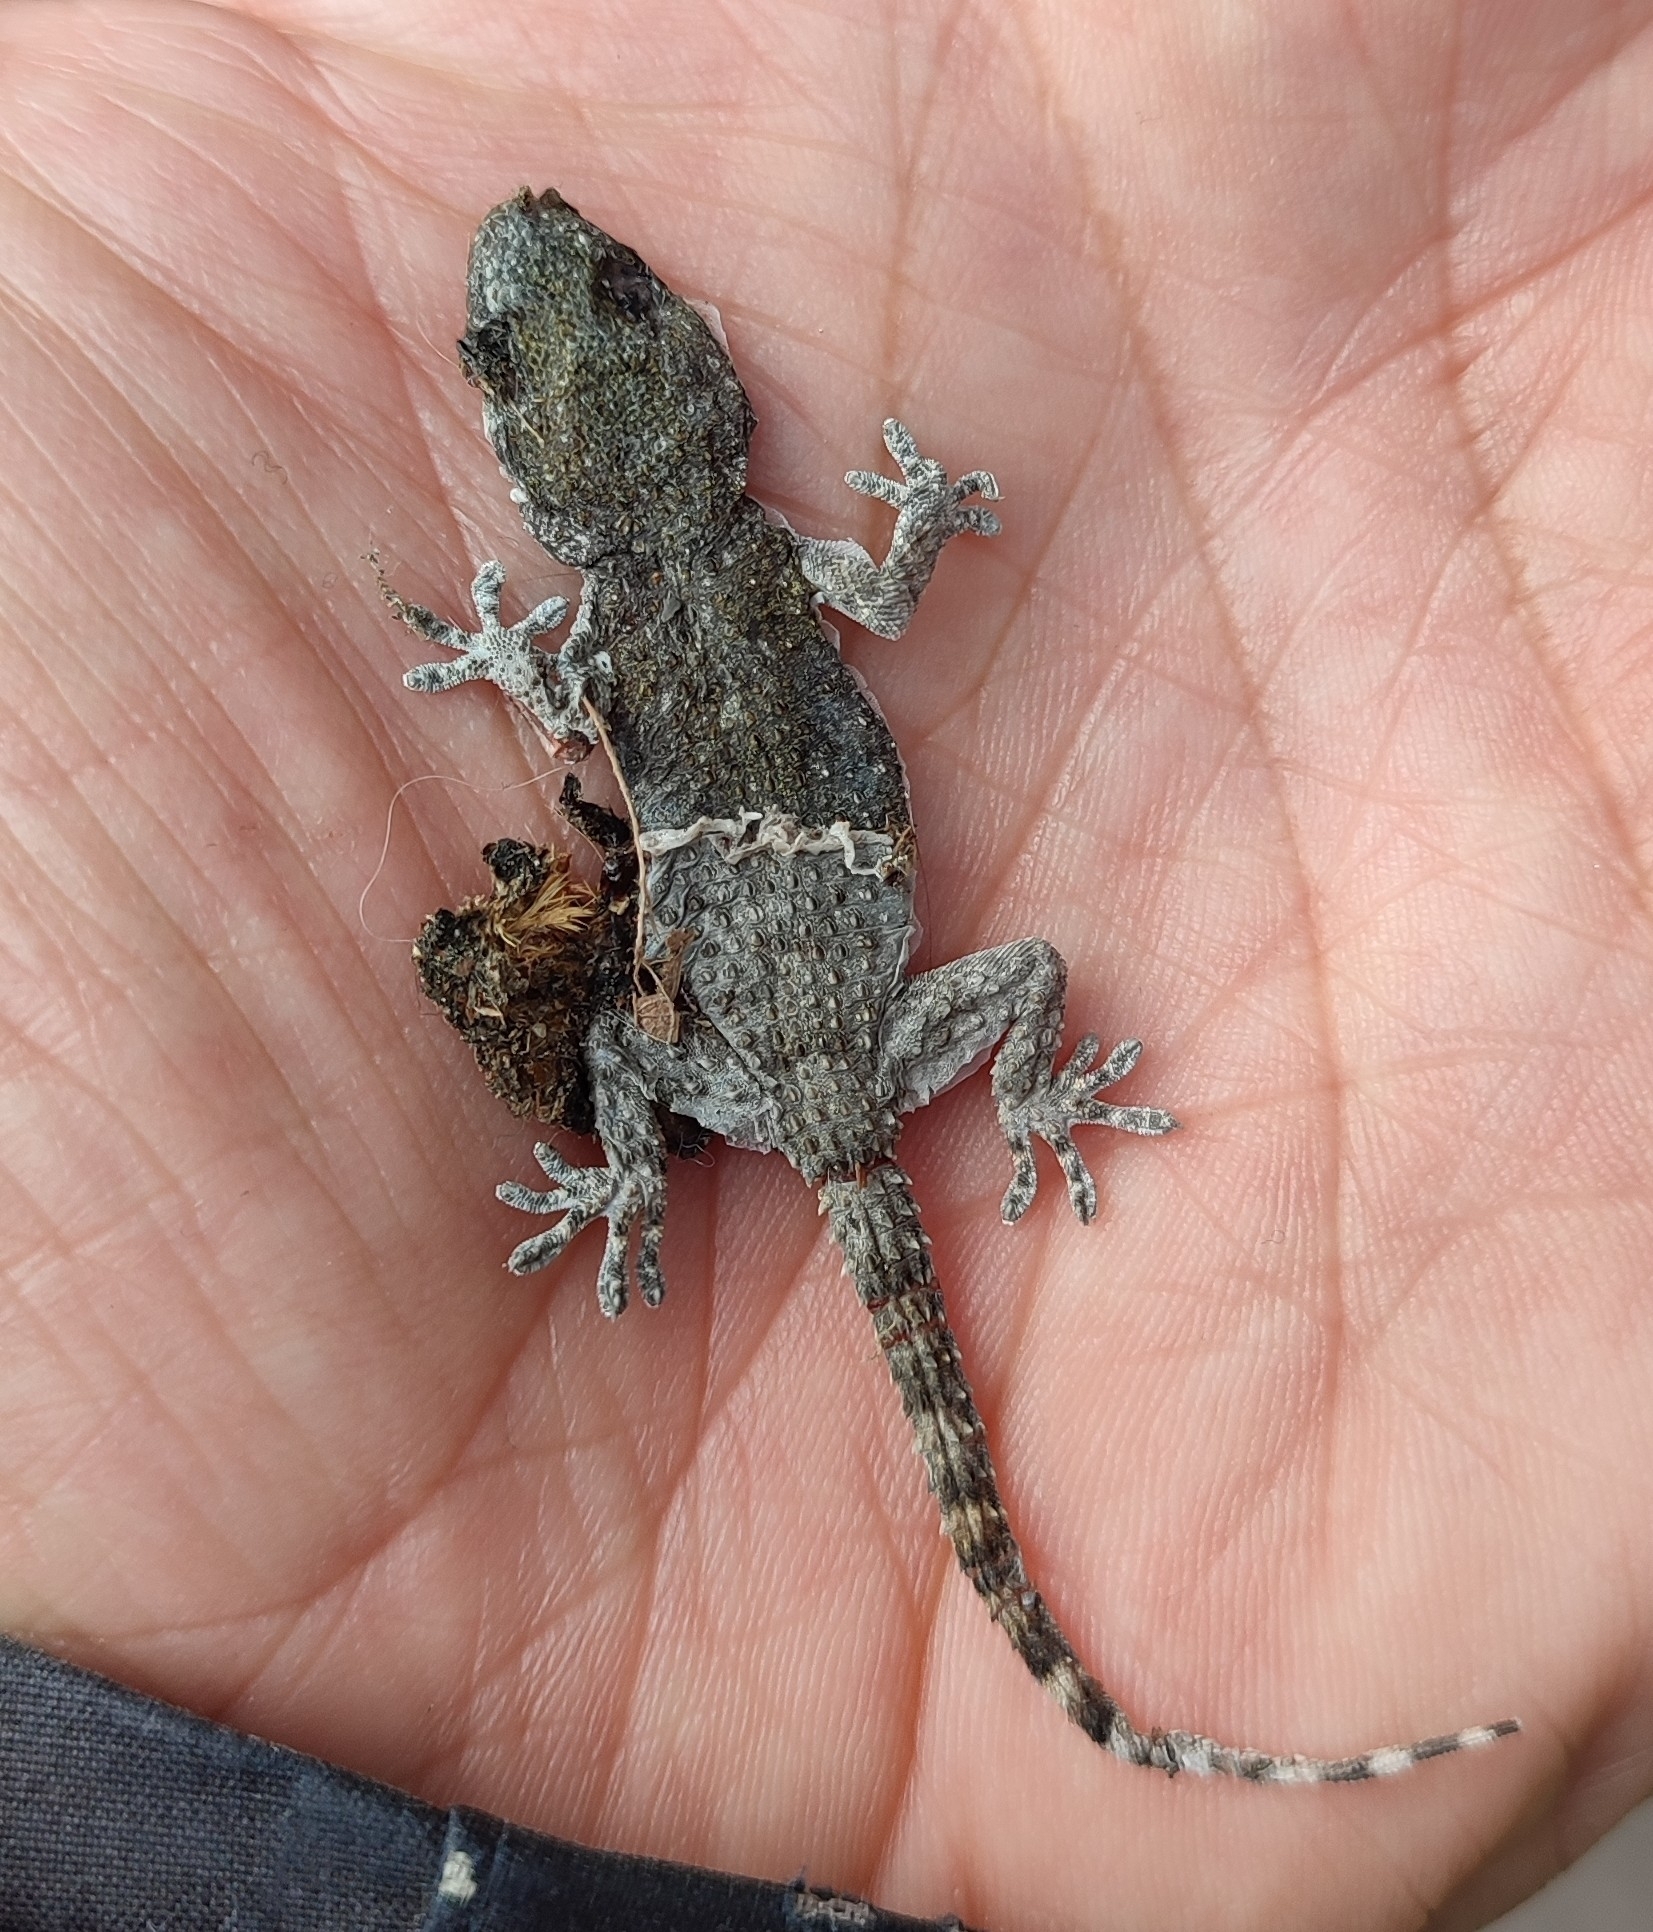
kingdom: Animalia
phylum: Chordata
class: Squamata
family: Phyllodactylidae
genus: Tarentola
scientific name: Tarentola mauritanica
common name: Moorish gecko
